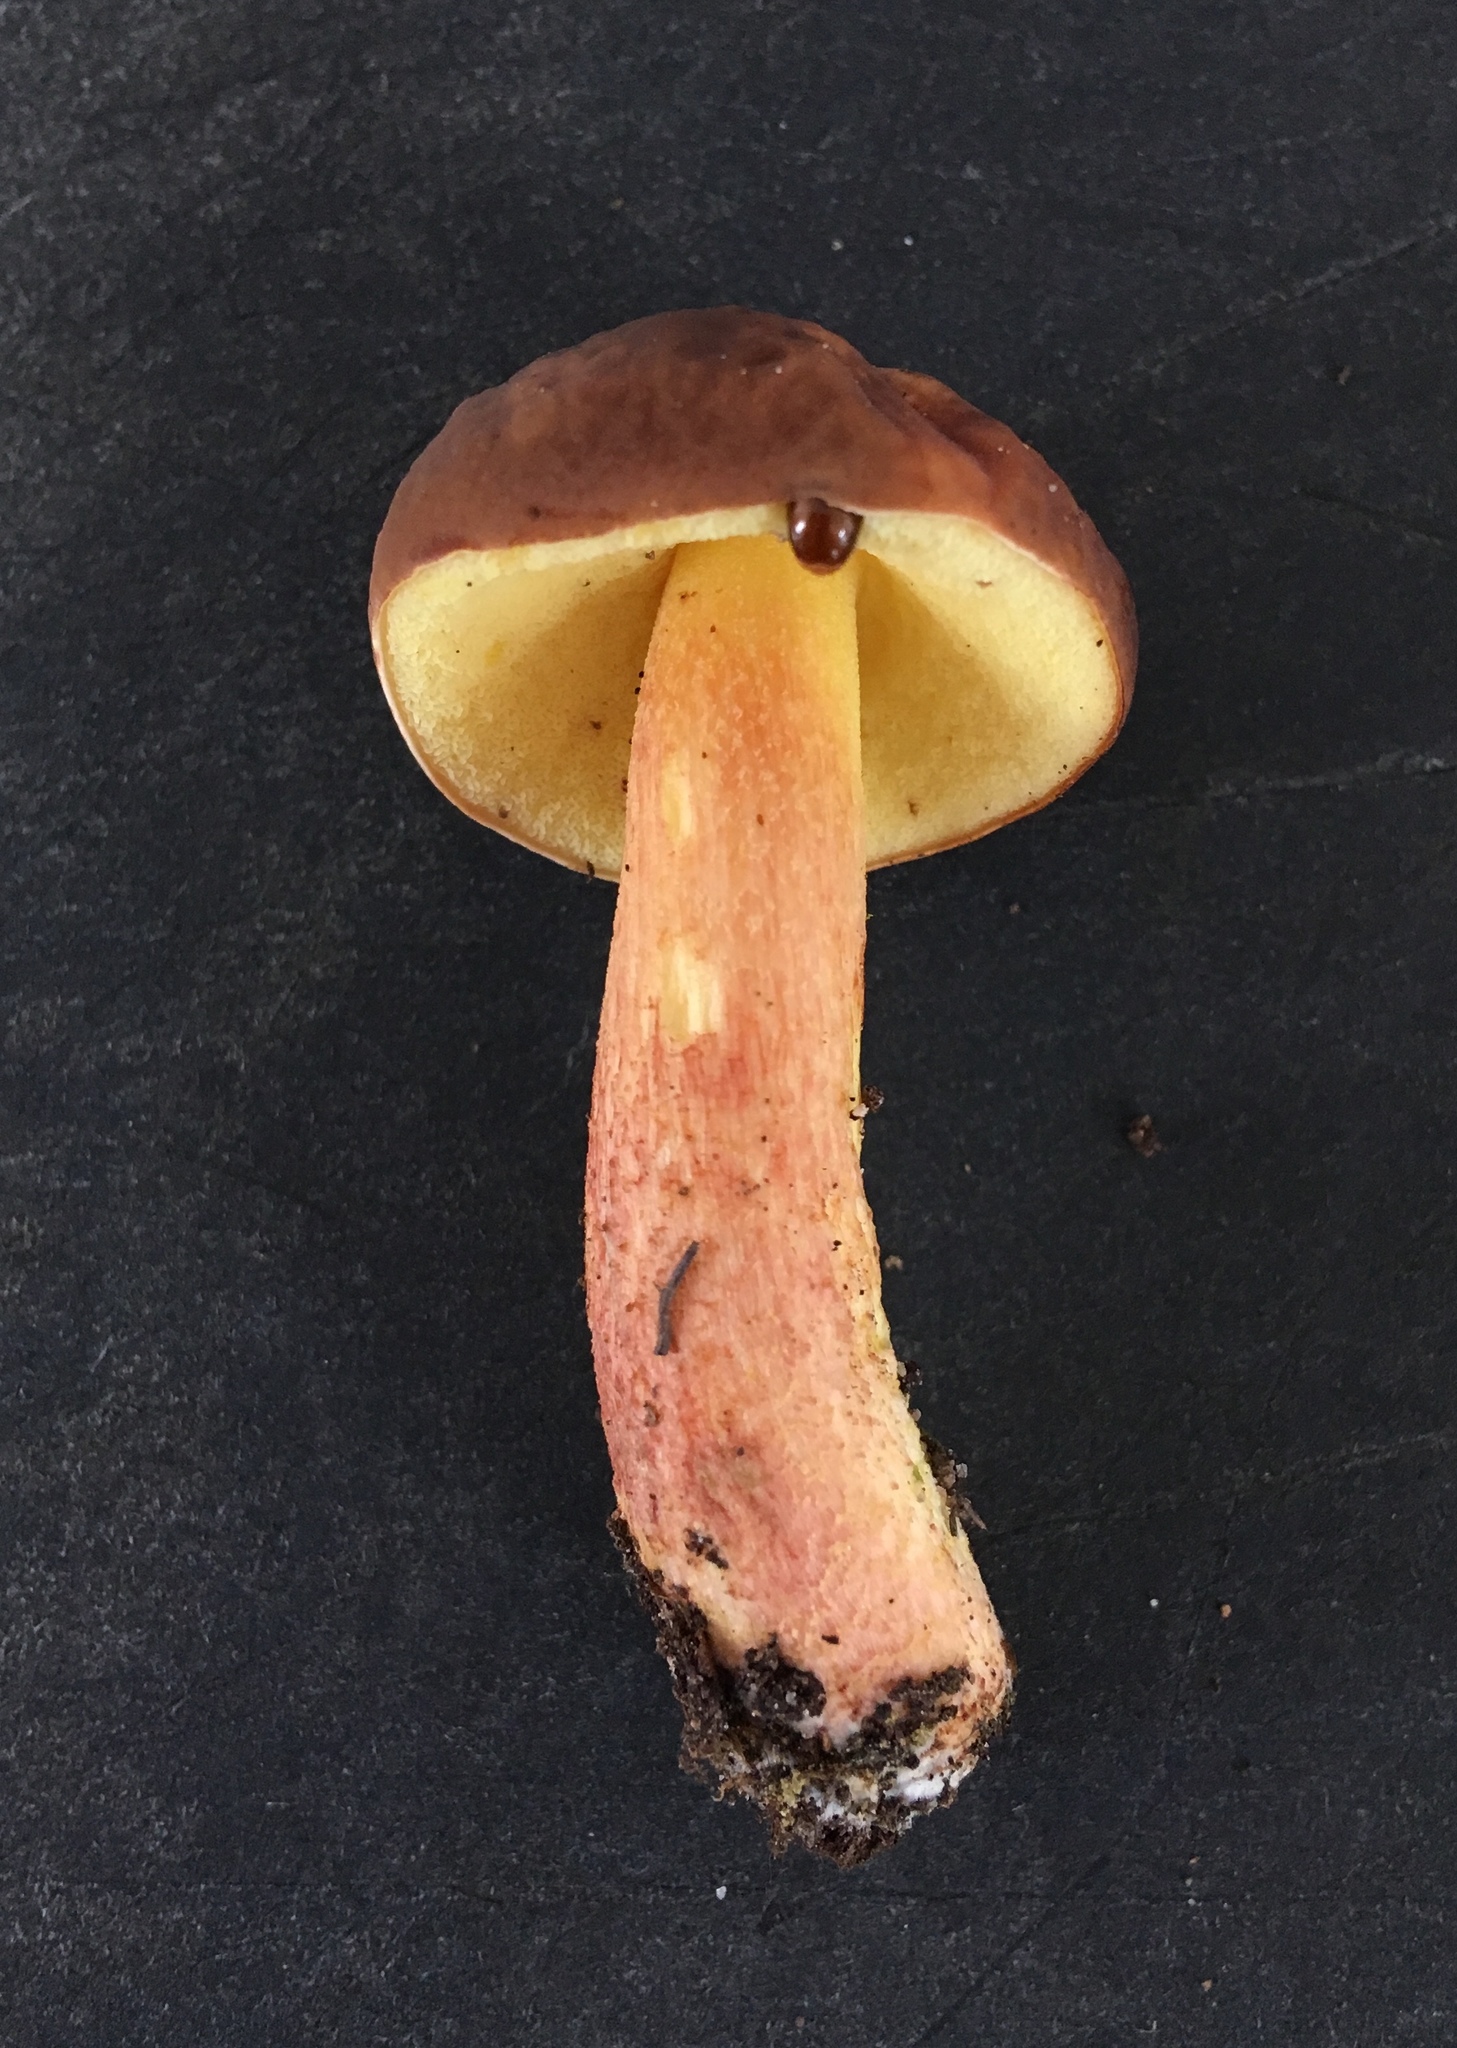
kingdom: Fungi
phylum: Basidiomycota
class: Agaricomycetes
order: Boletales
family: Boletaceae
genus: Hemileccinum
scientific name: Hemileccinum rubropunctum
